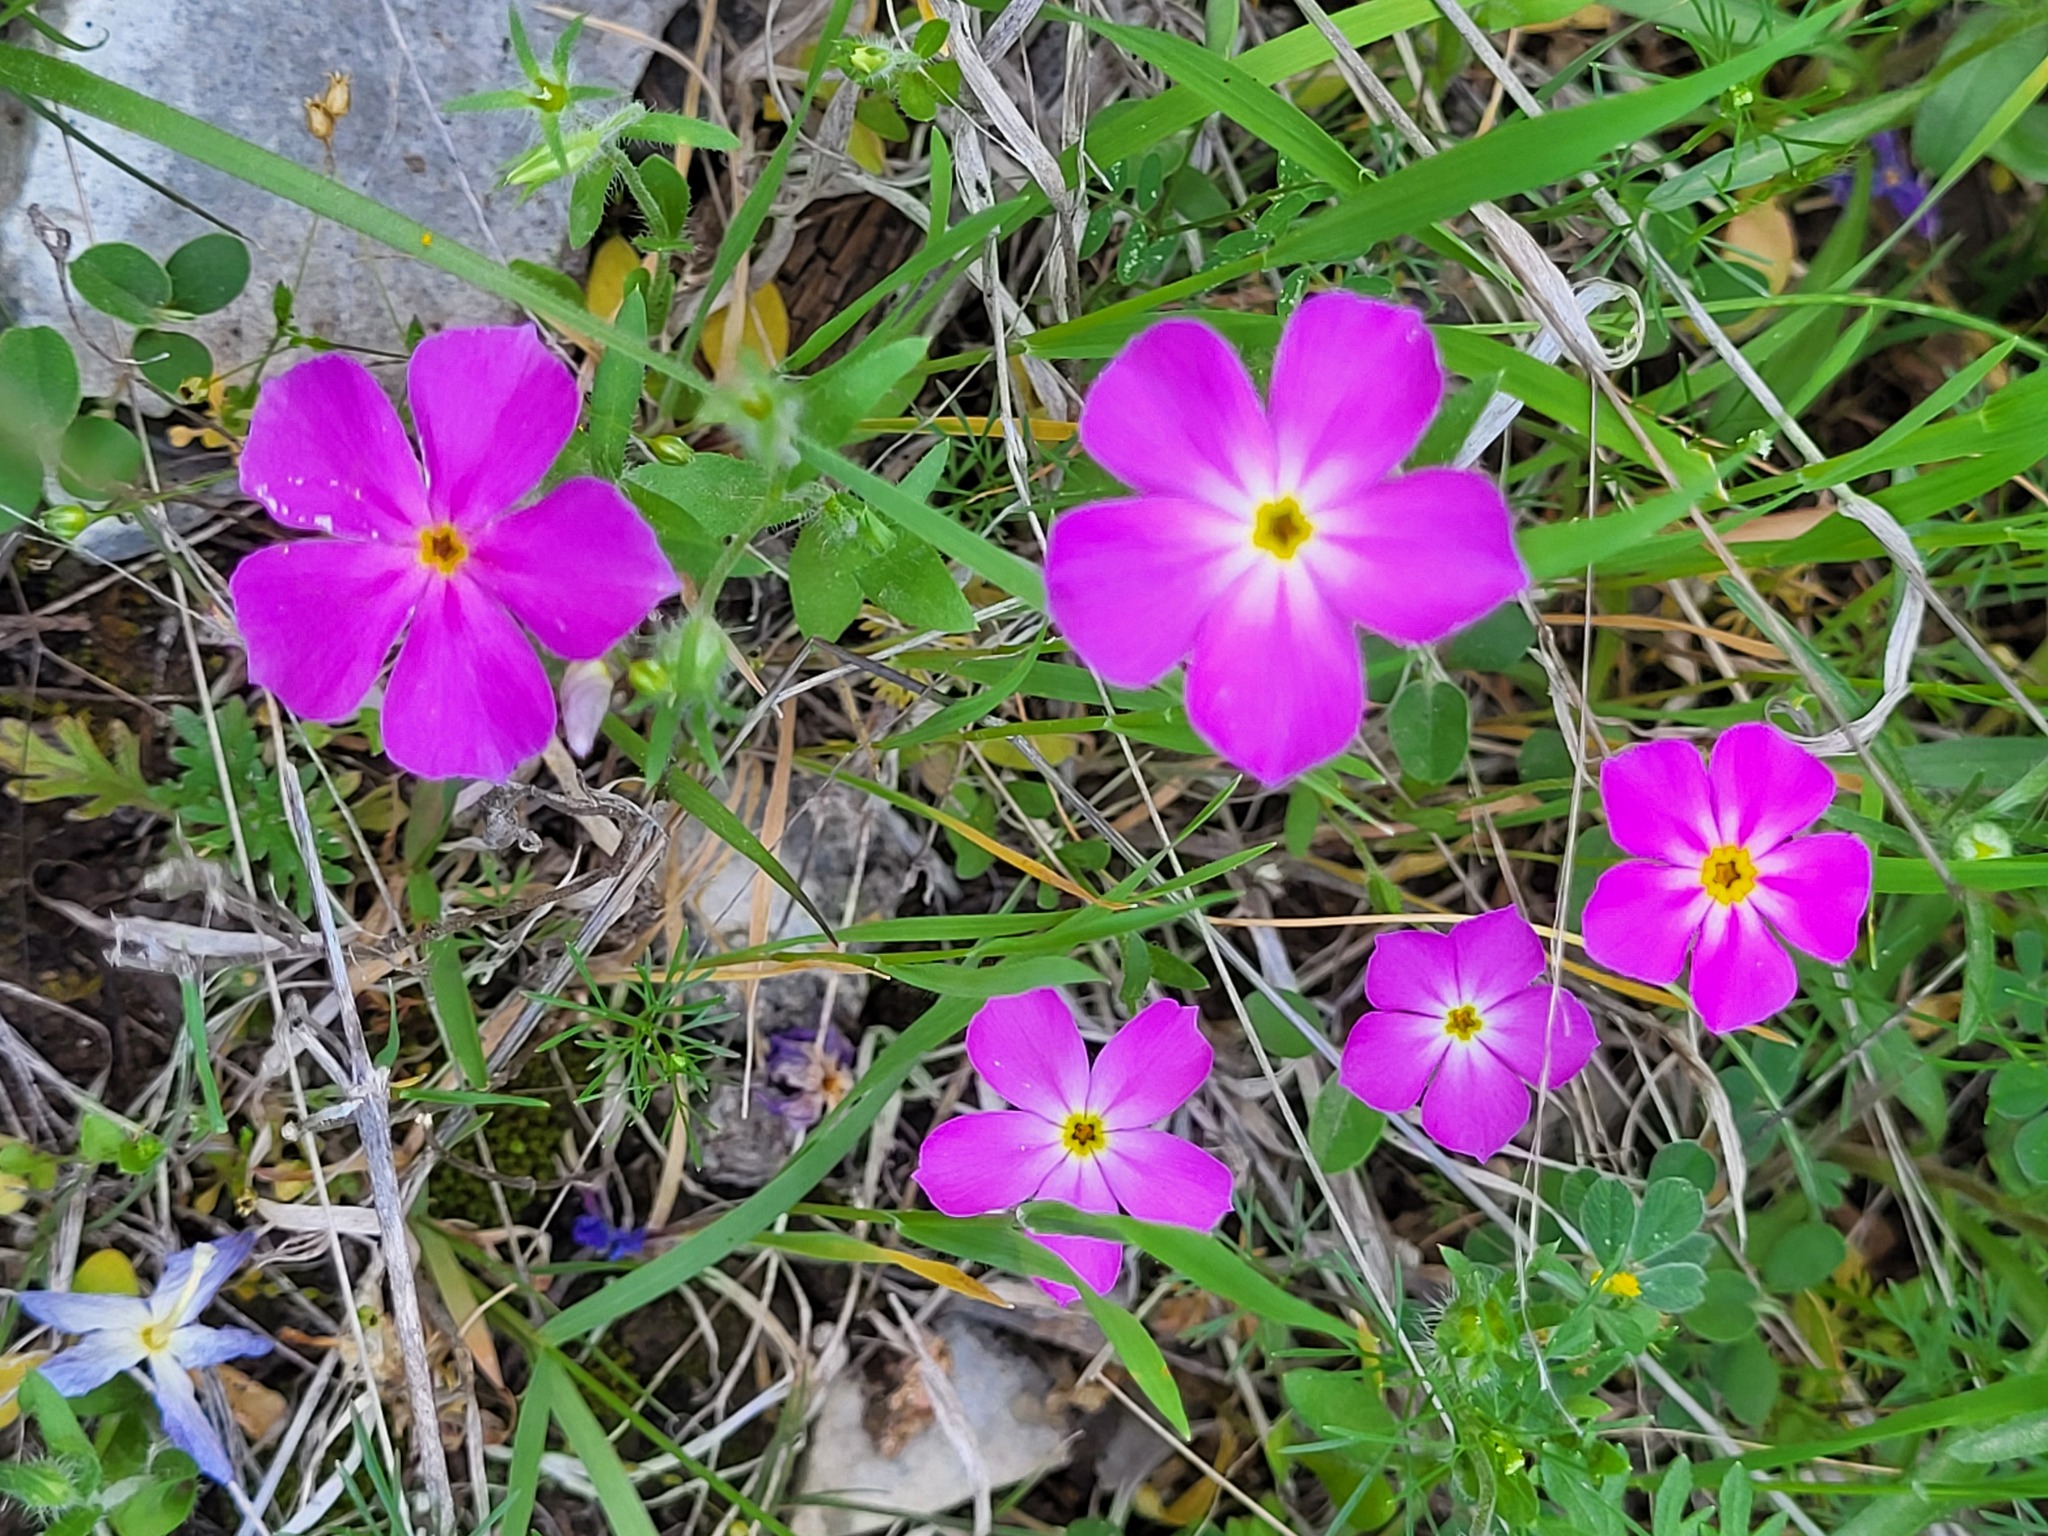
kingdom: Plantae
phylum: Tracheophyta
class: Magnoliopsida
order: Ericales
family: Polemoniaceae
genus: Phlox
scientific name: Phlox roemeriana
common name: Roemer's phlox
